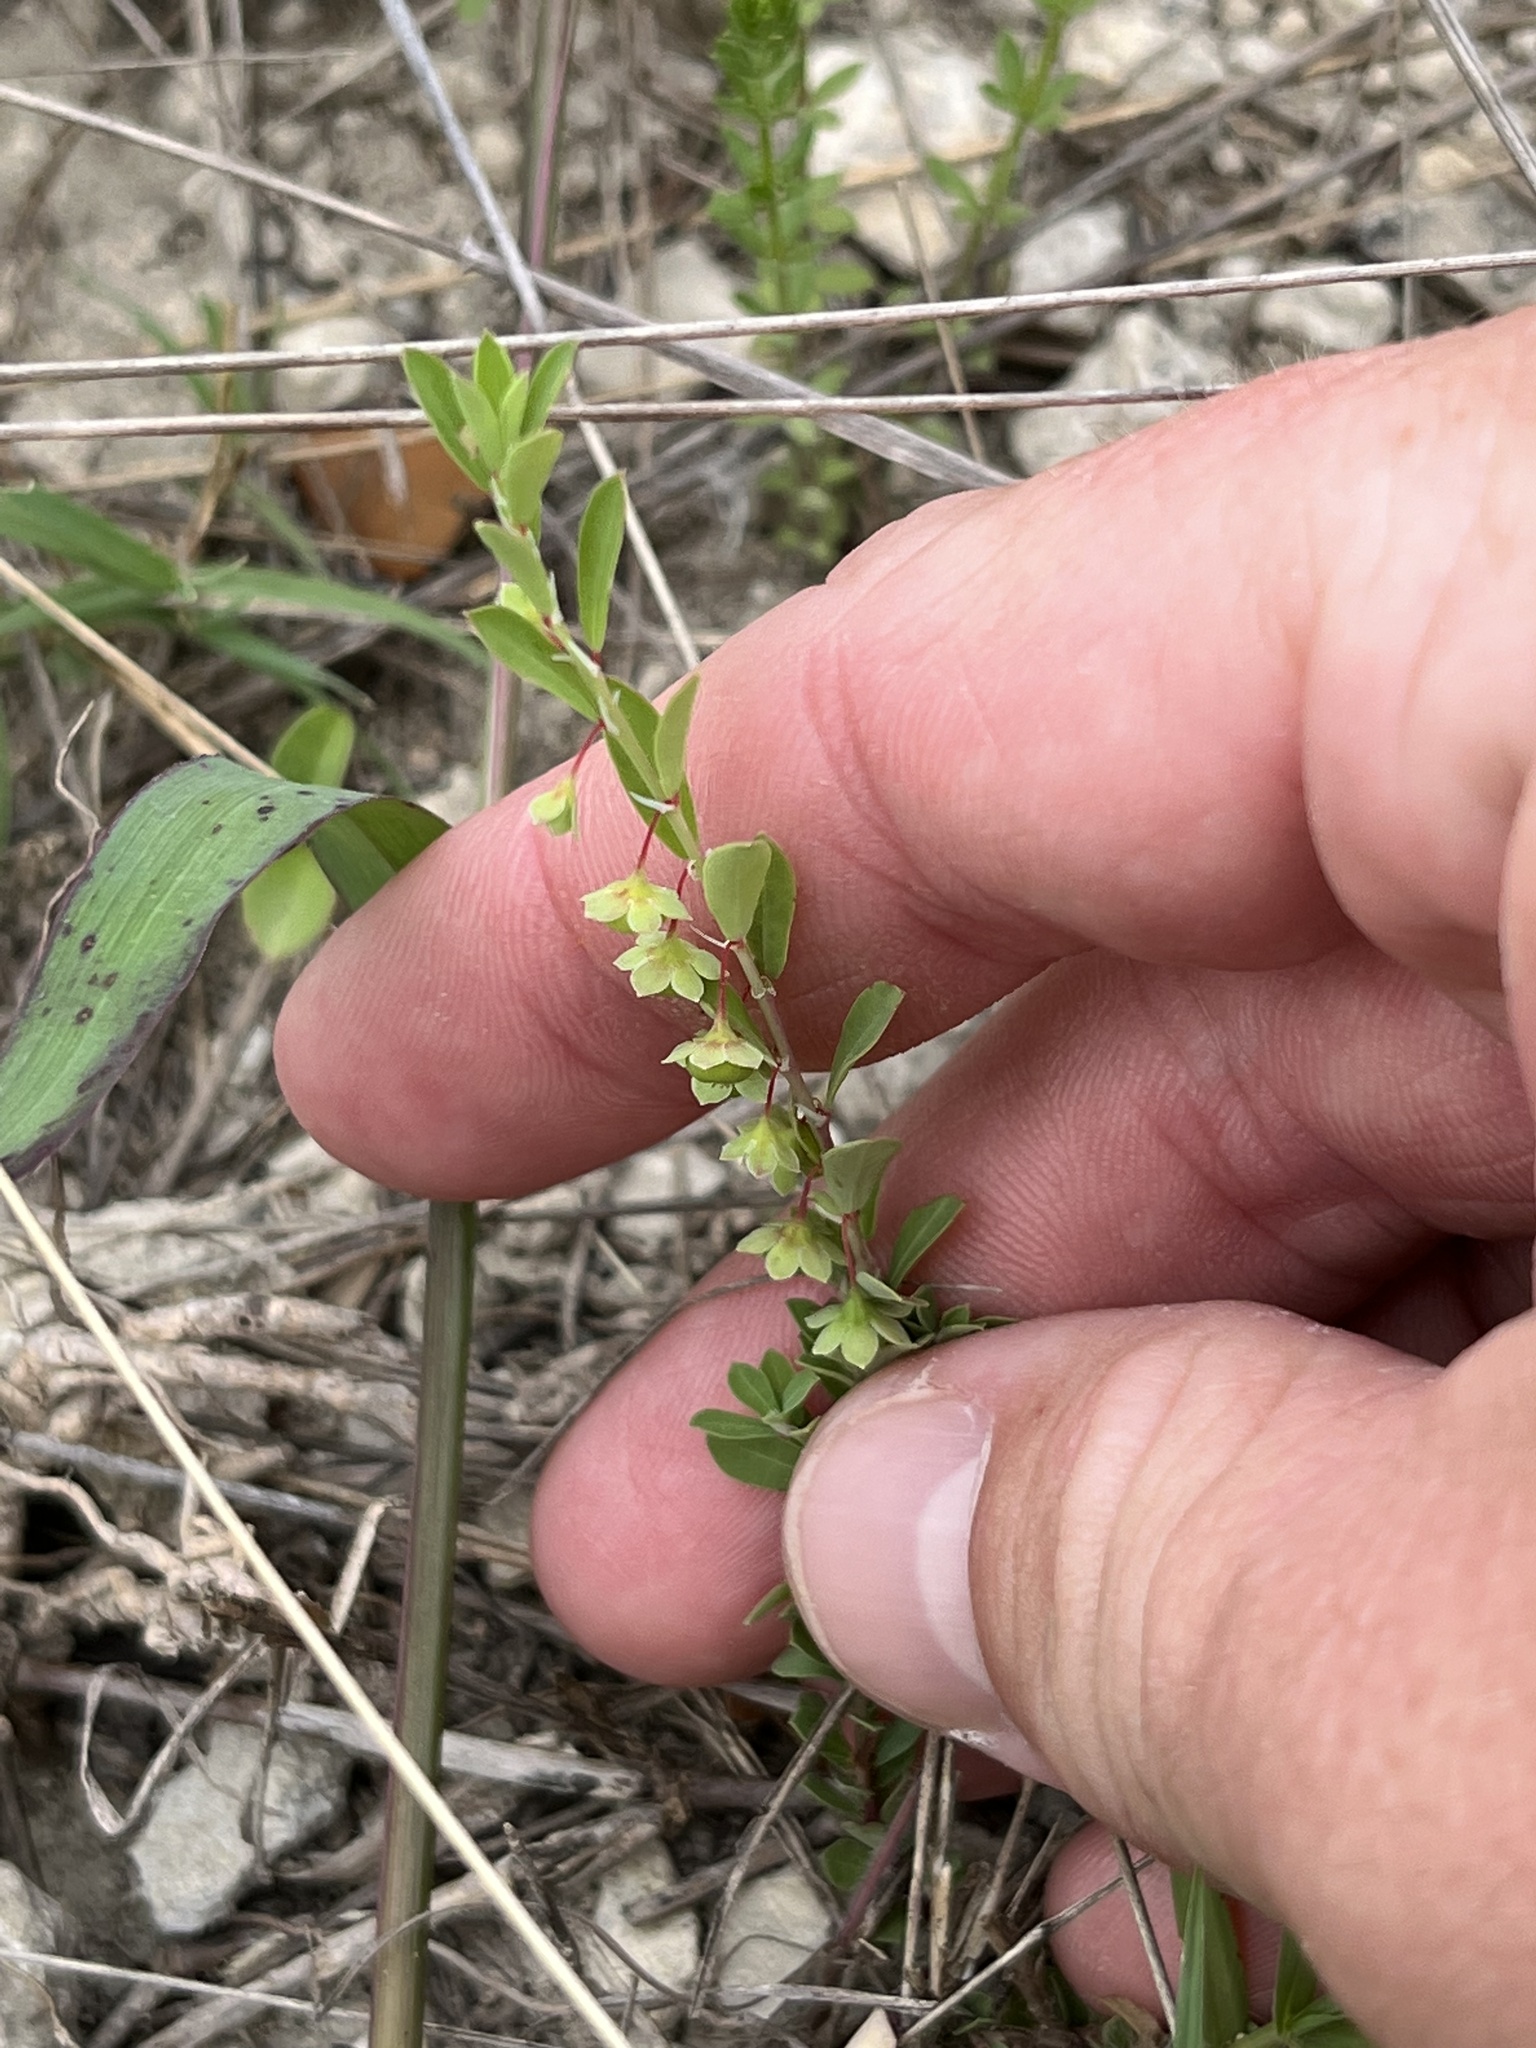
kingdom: Plantae
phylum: Tracheophyta
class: Magnoliopsida
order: Malpighiales
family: Phyllanthaceae
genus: Phyllanthus
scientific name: Phyllanthus polygonoides
